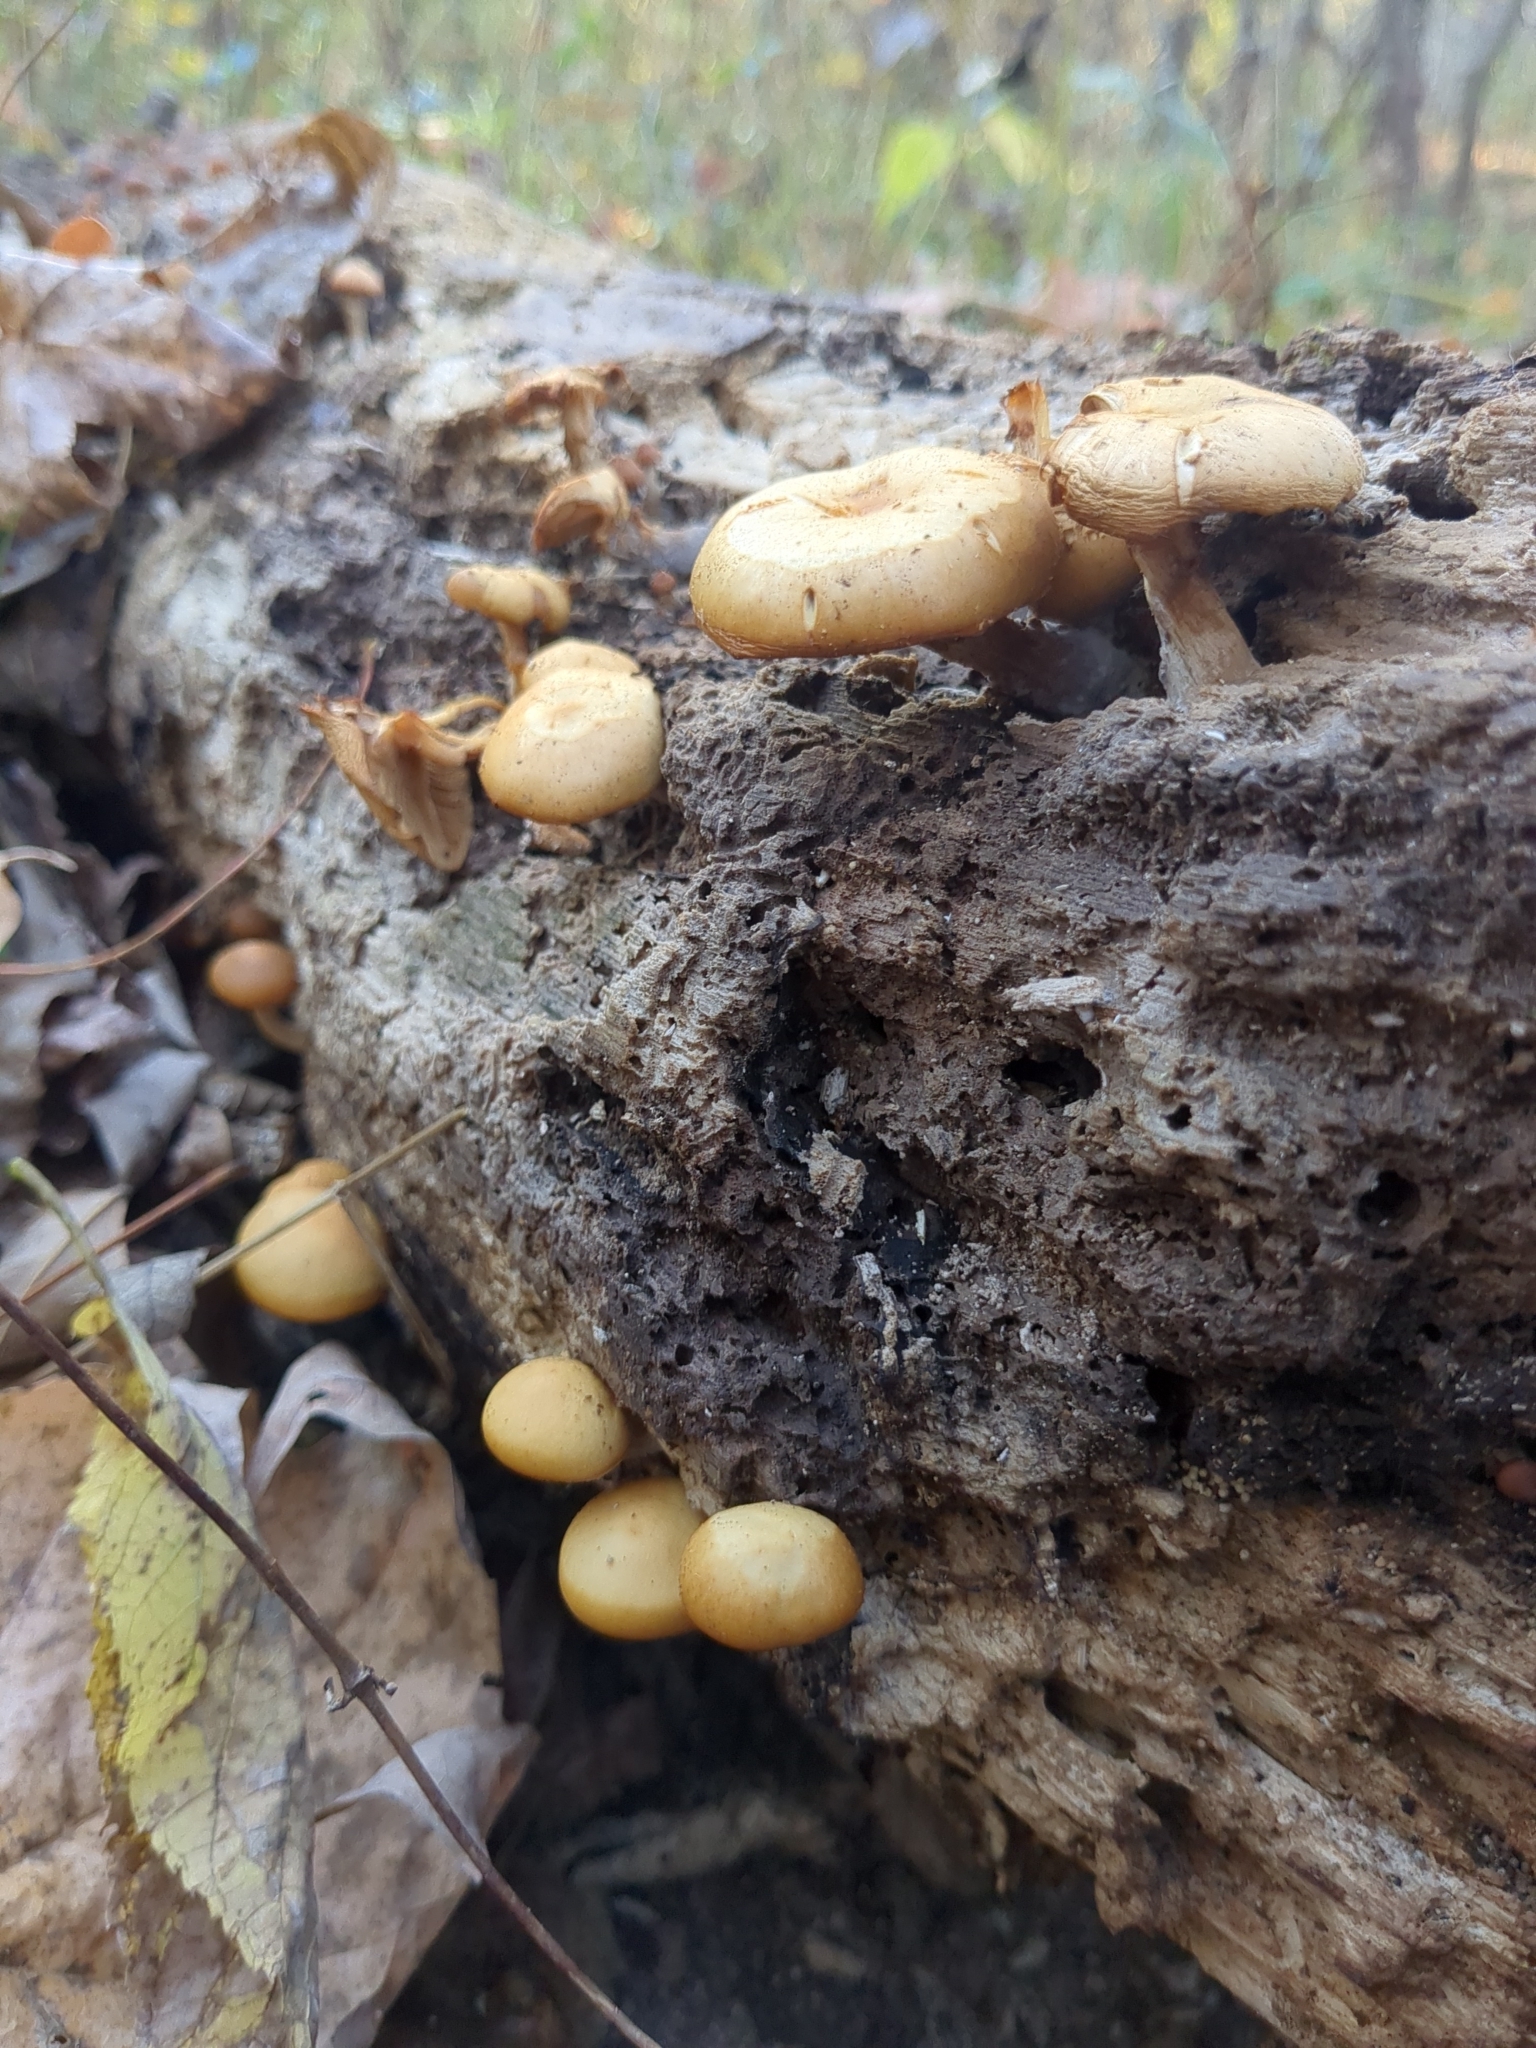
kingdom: Fungi
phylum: Basidiomycota
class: Agaricomycetes
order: Agaricales
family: Hymenogastraceae
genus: Galerina
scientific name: Galerina marginata
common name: Funeral bell
